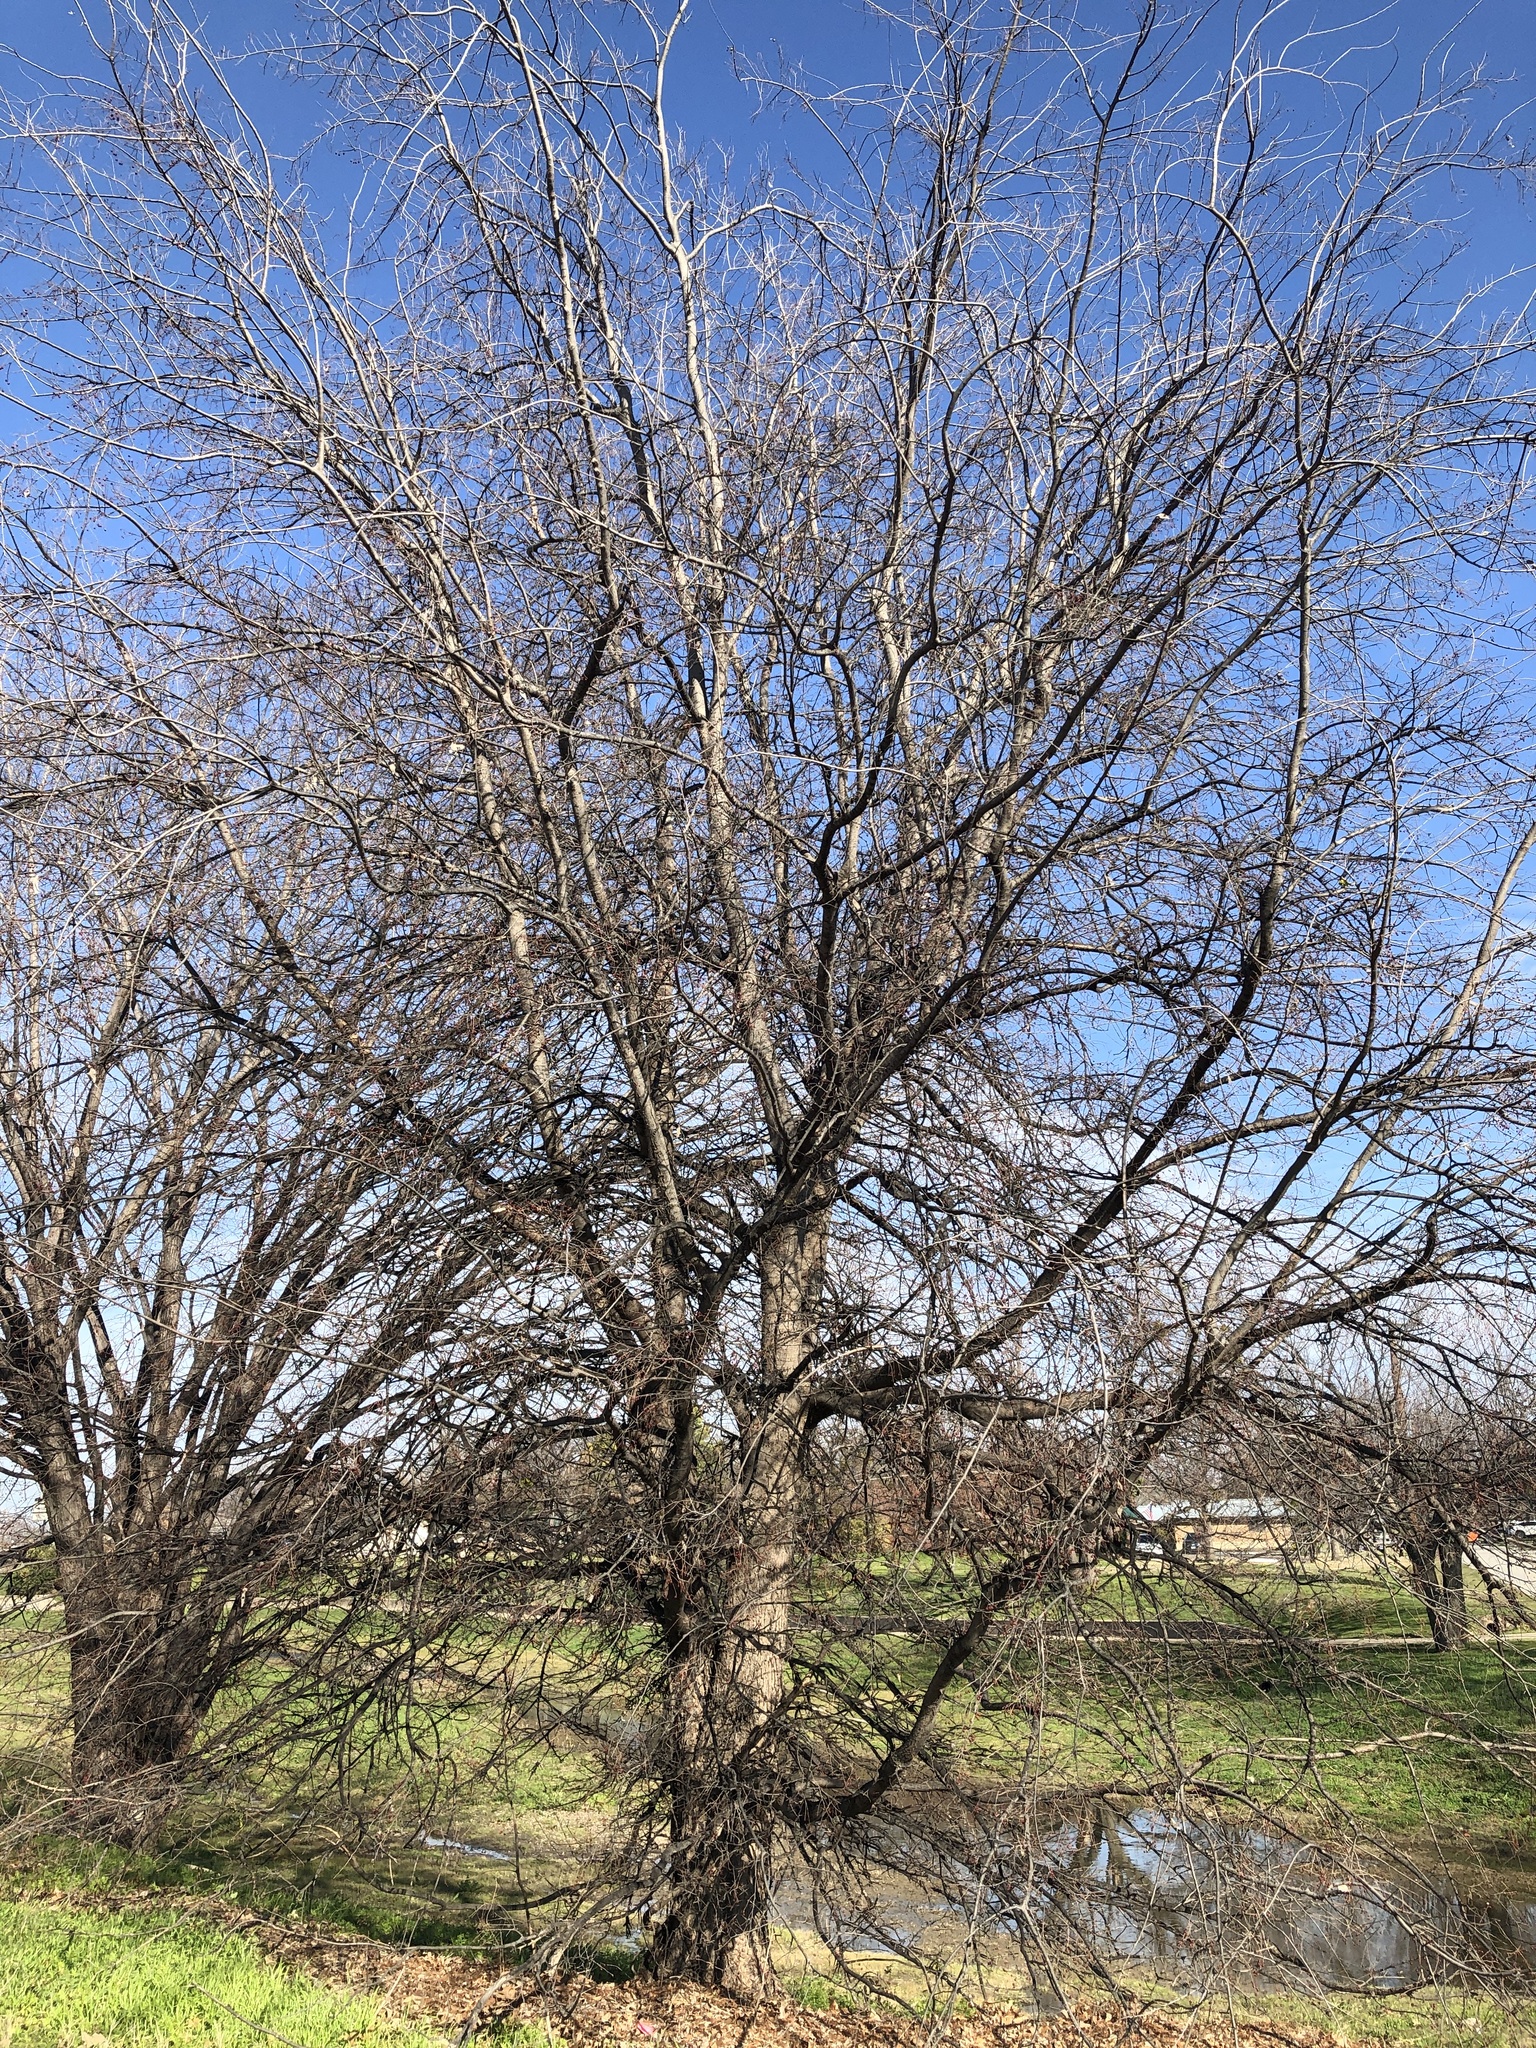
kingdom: Plantae
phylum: Tracheophyta
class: Magnoliopsida
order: Rosales
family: Cannabaceae
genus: Celtis
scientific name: Celtis laevigata
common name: Sugarberry
